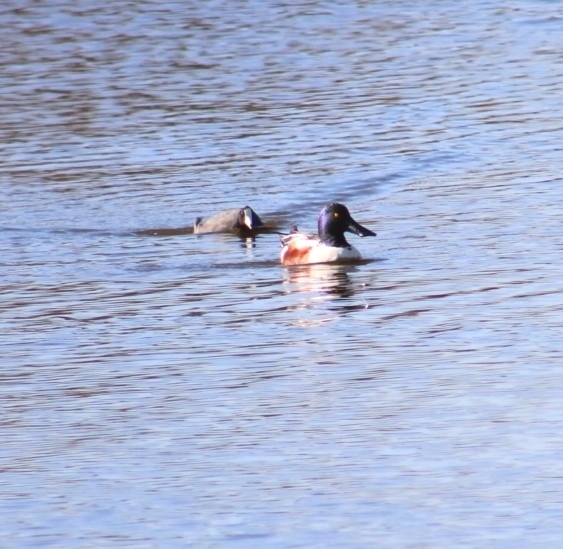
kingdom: Animalia
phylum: Chordata
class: Aves
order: Anseriformes
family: Anatidae
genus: Spatula
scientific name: Spatula clypeata
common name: Northern shoveler
